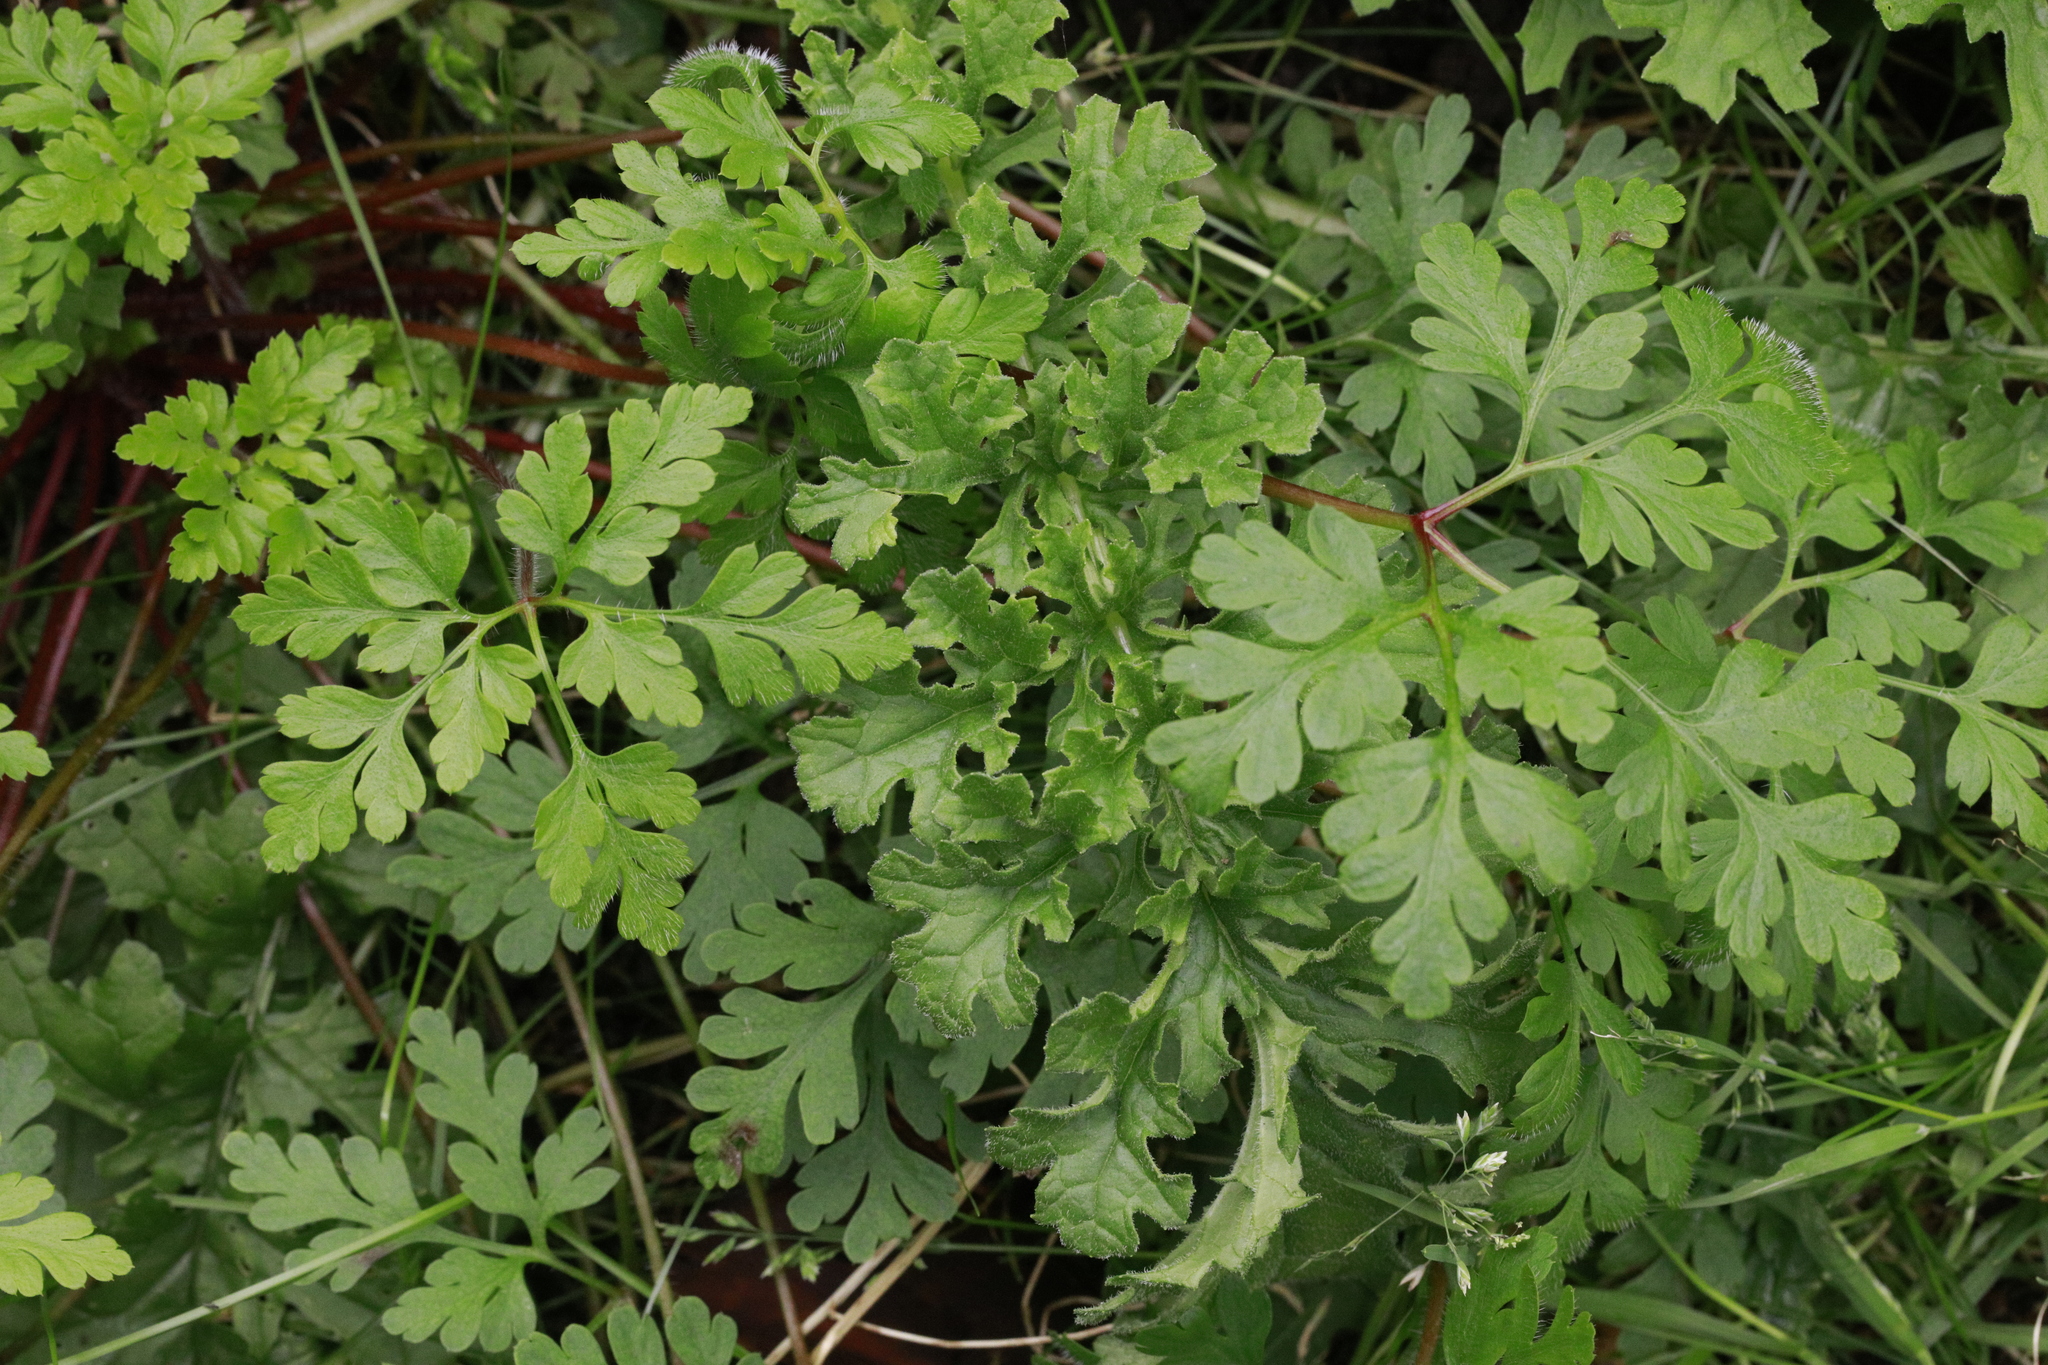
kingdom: Plantae
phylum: Tracheophyta
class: Magnoliopsida
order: Geraniales
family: Geraniaceae
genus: Geranium
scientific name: Geranium robertianum
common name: Herb-robert
